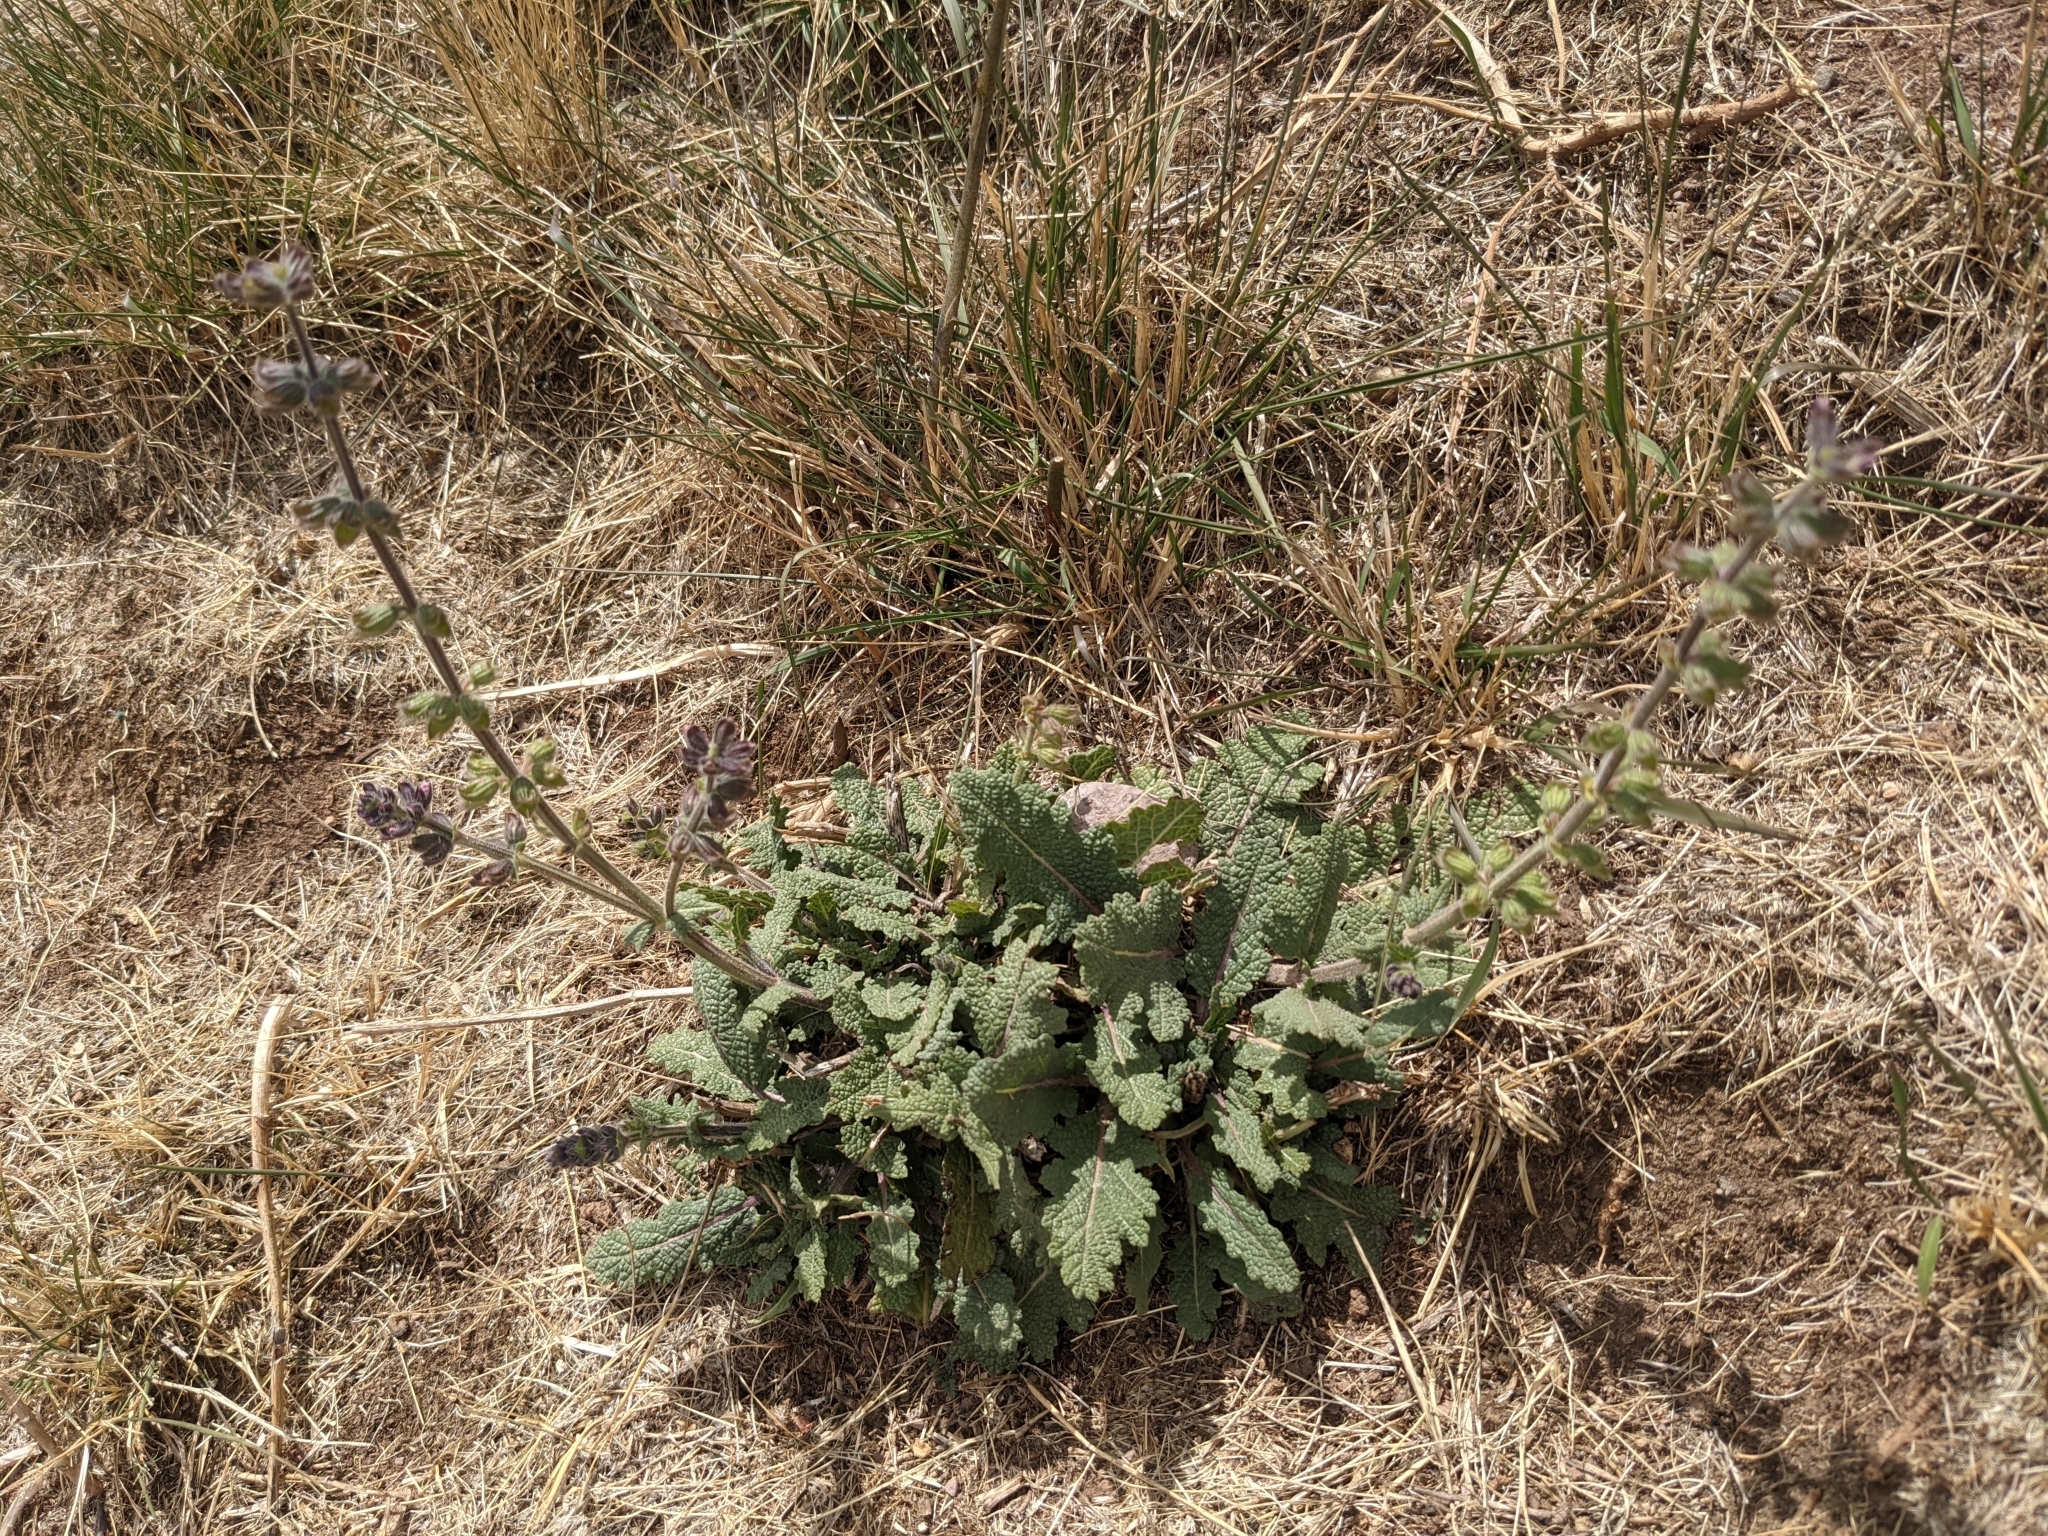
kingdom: Plantae
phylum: Tracheophyta
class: Magnoliopsida
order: Lamiales
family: Lamiaceae
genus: Salvia
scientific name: Salvia verbenaca
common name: Wild clary
